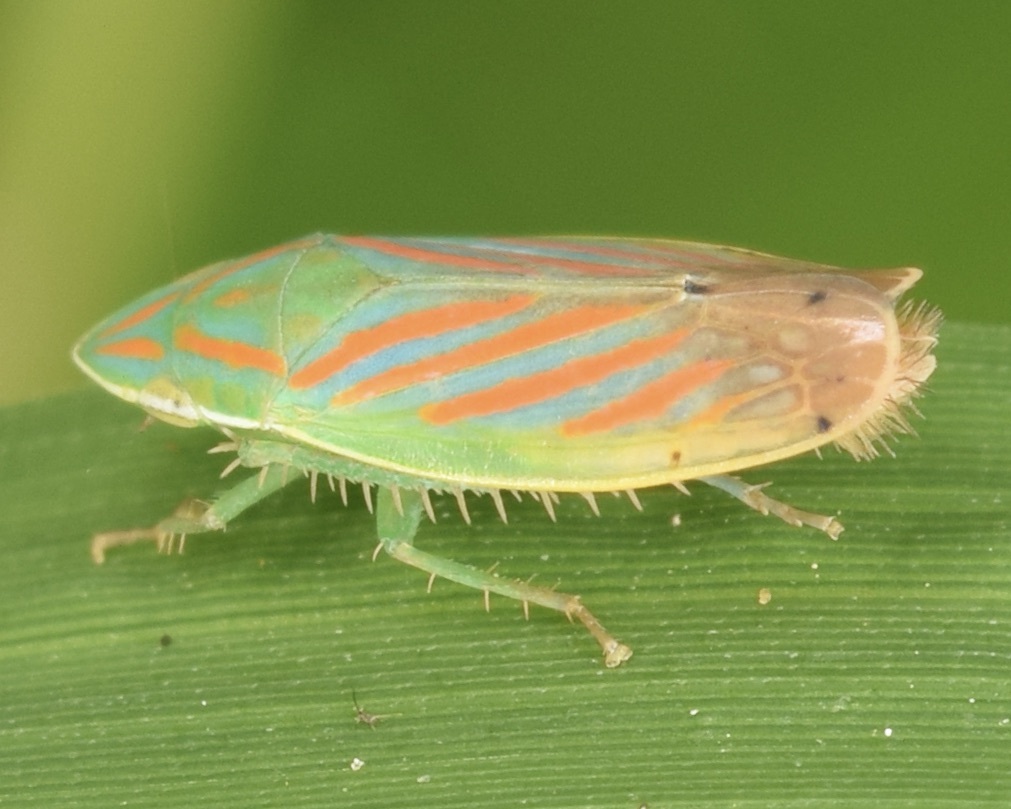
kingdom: Animalia
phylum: Arthropoda
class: Insecta
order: Hemiptera
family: Cicadellidae
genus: Spangbergiella
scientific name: Spangbergiella quadripunctata
